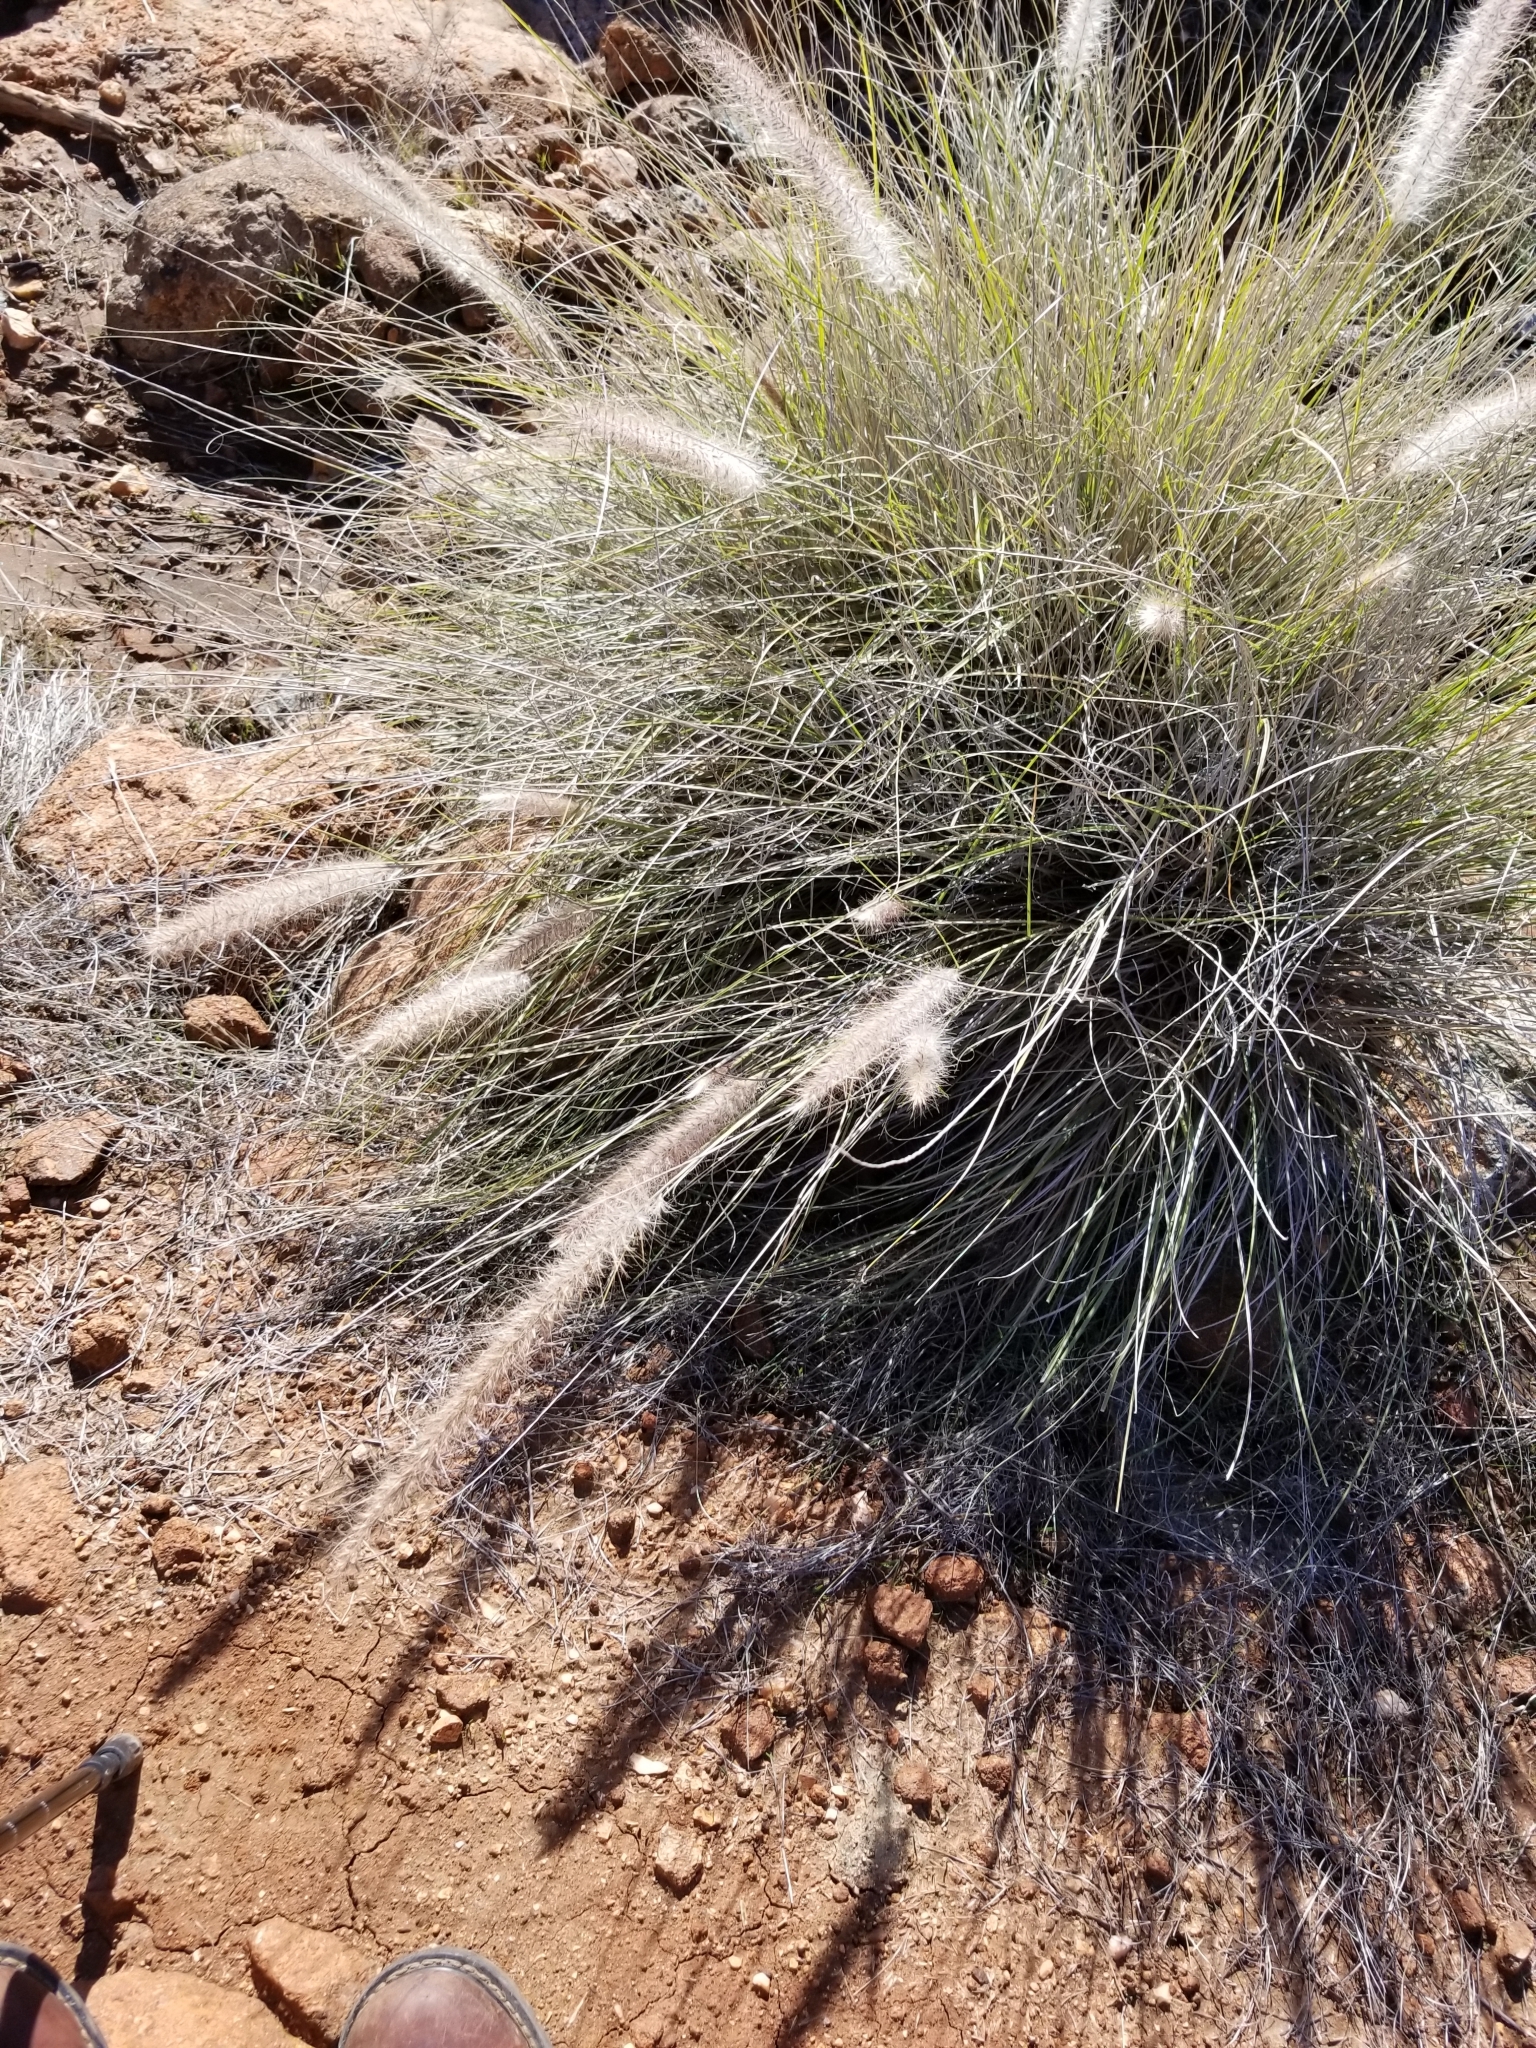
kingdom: Plantae
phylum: Tracheophyta
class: Liliopsida
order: Poales
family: Poaceae
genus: Cenchrus
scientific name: Cenchrus setaceus
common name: Crimson fountaingrass
